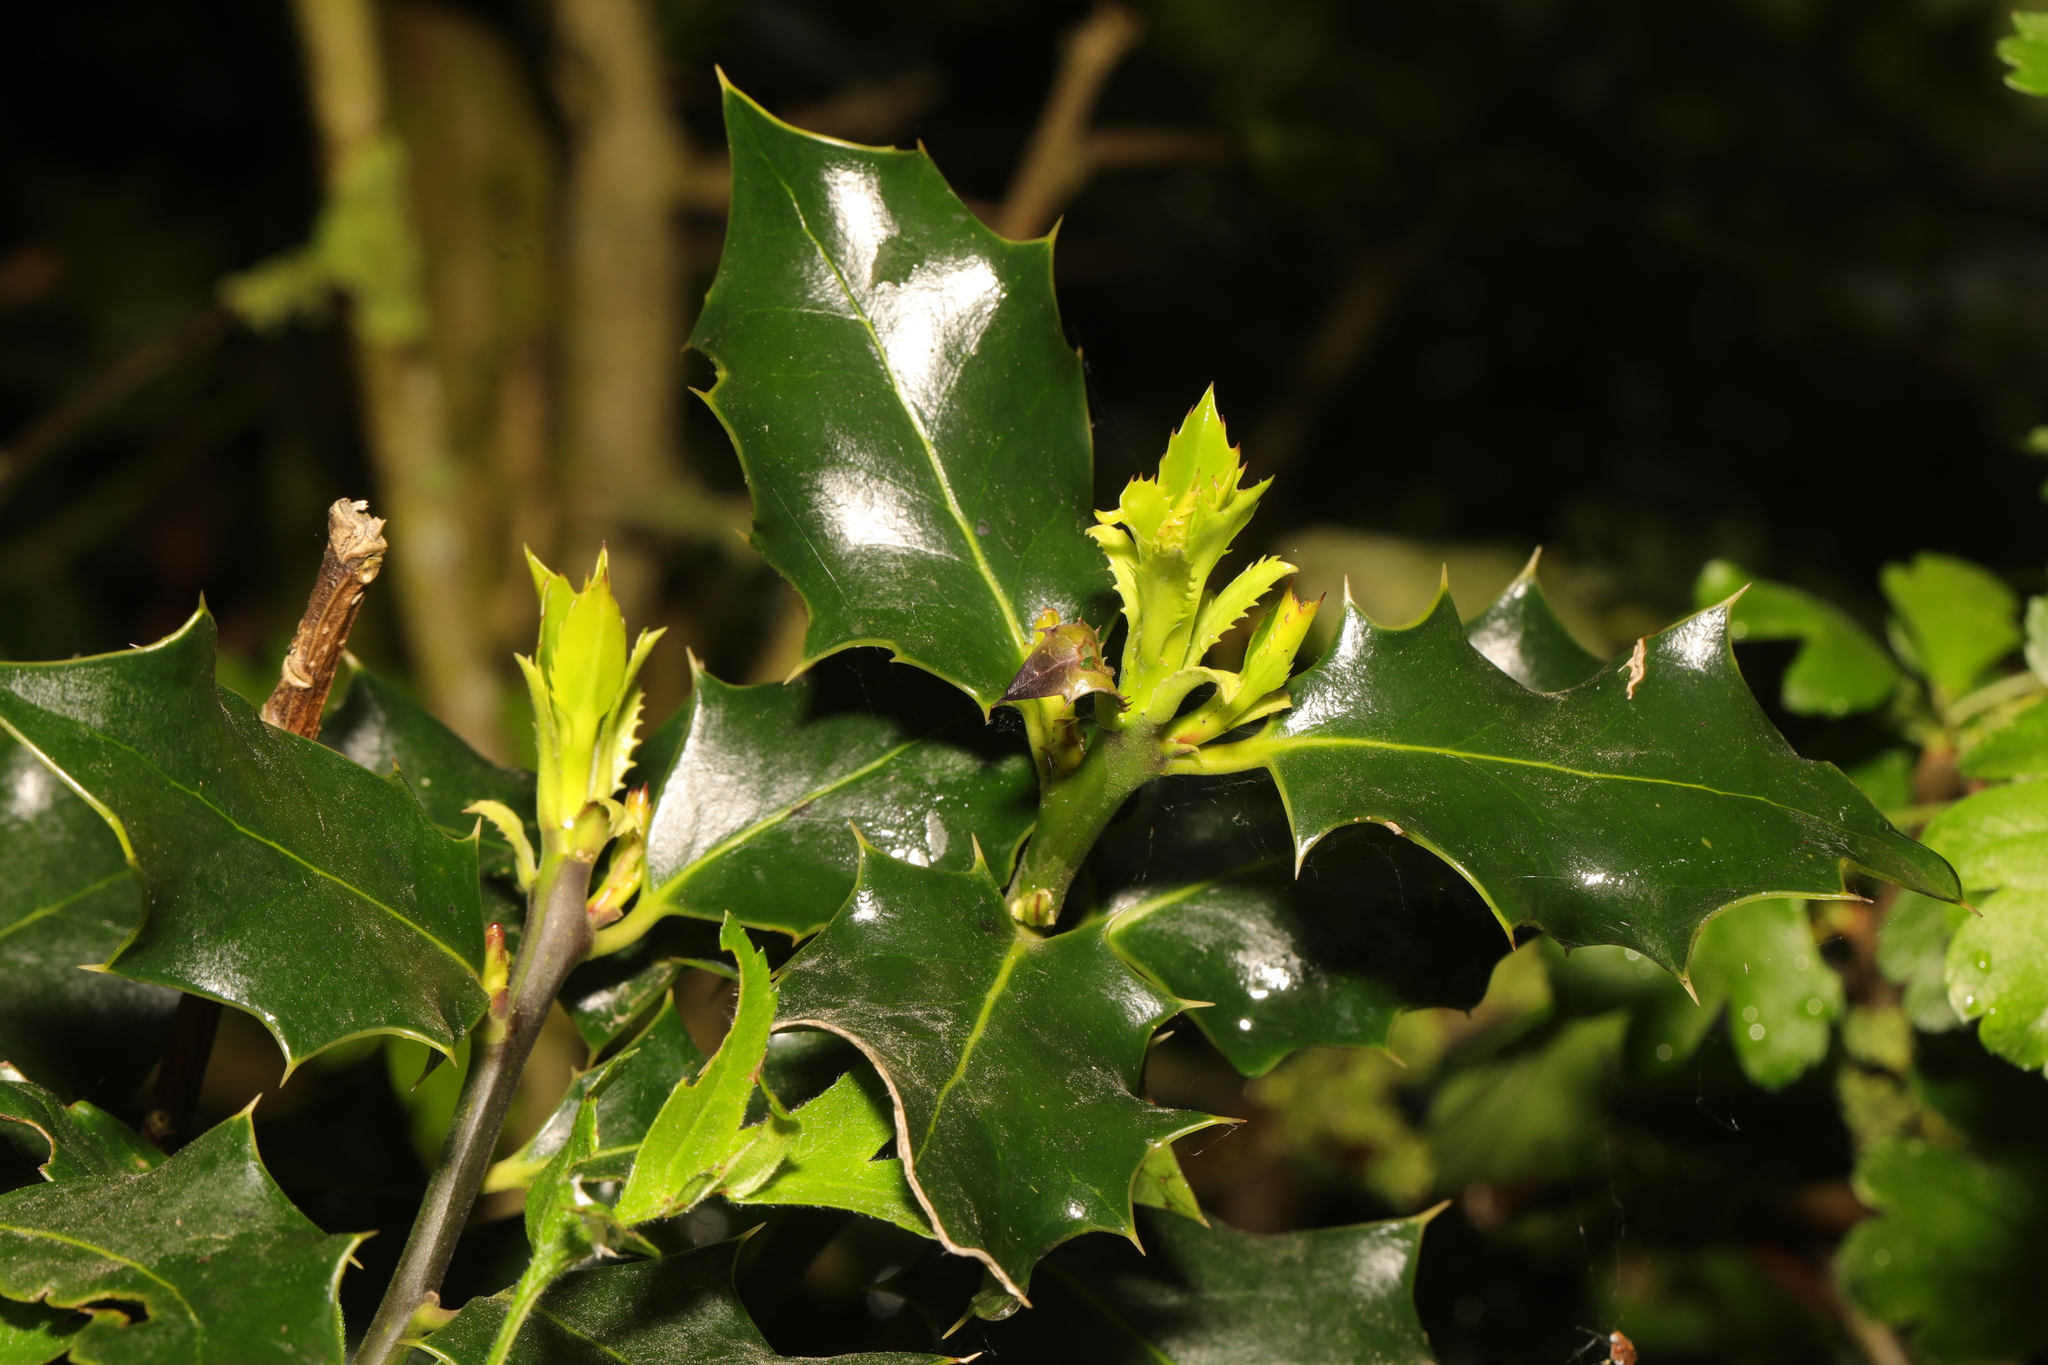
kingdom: Plantae
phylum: Tracheophyta
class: Magnoliopsida
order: Aquifoliales
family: Aquifoliaceae
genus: Ilex
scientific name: Ilex aquifolium
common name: English holly
